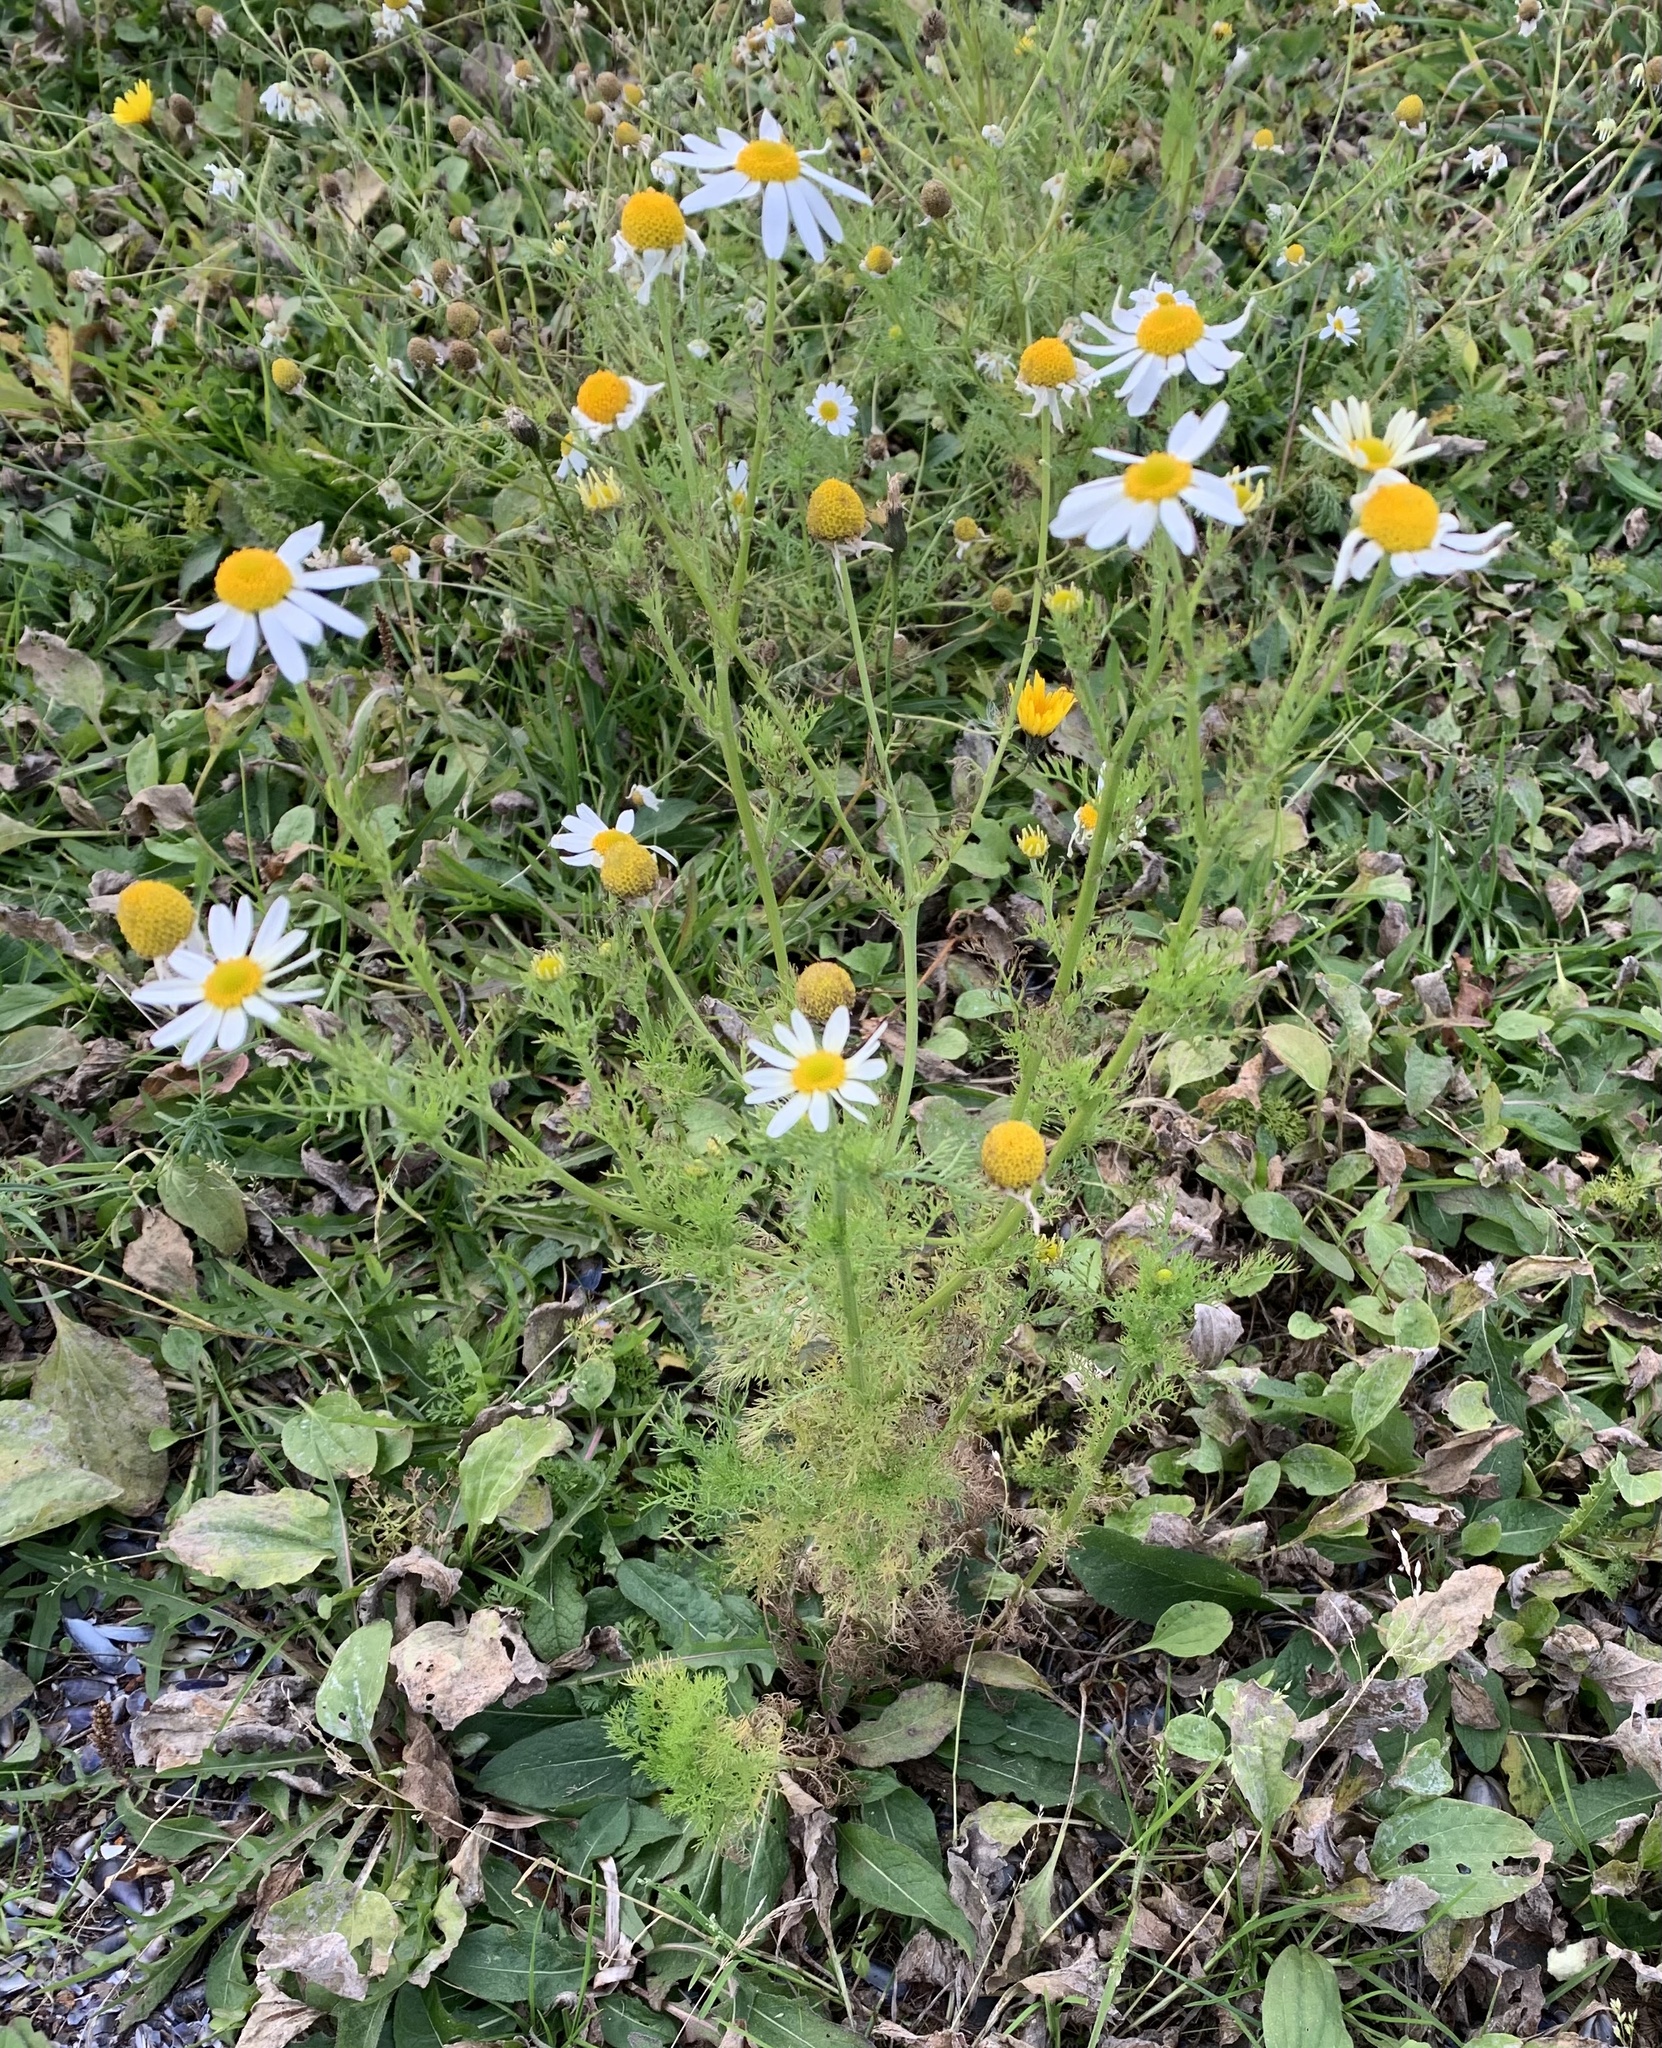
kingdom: Plantae
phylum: Tracheophyta
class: Magnoliopsida
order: Asterales
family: Asteraceae
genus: Tripleurospermum
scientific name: Tripleurospermum inodorum
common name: Scentless mayweed
